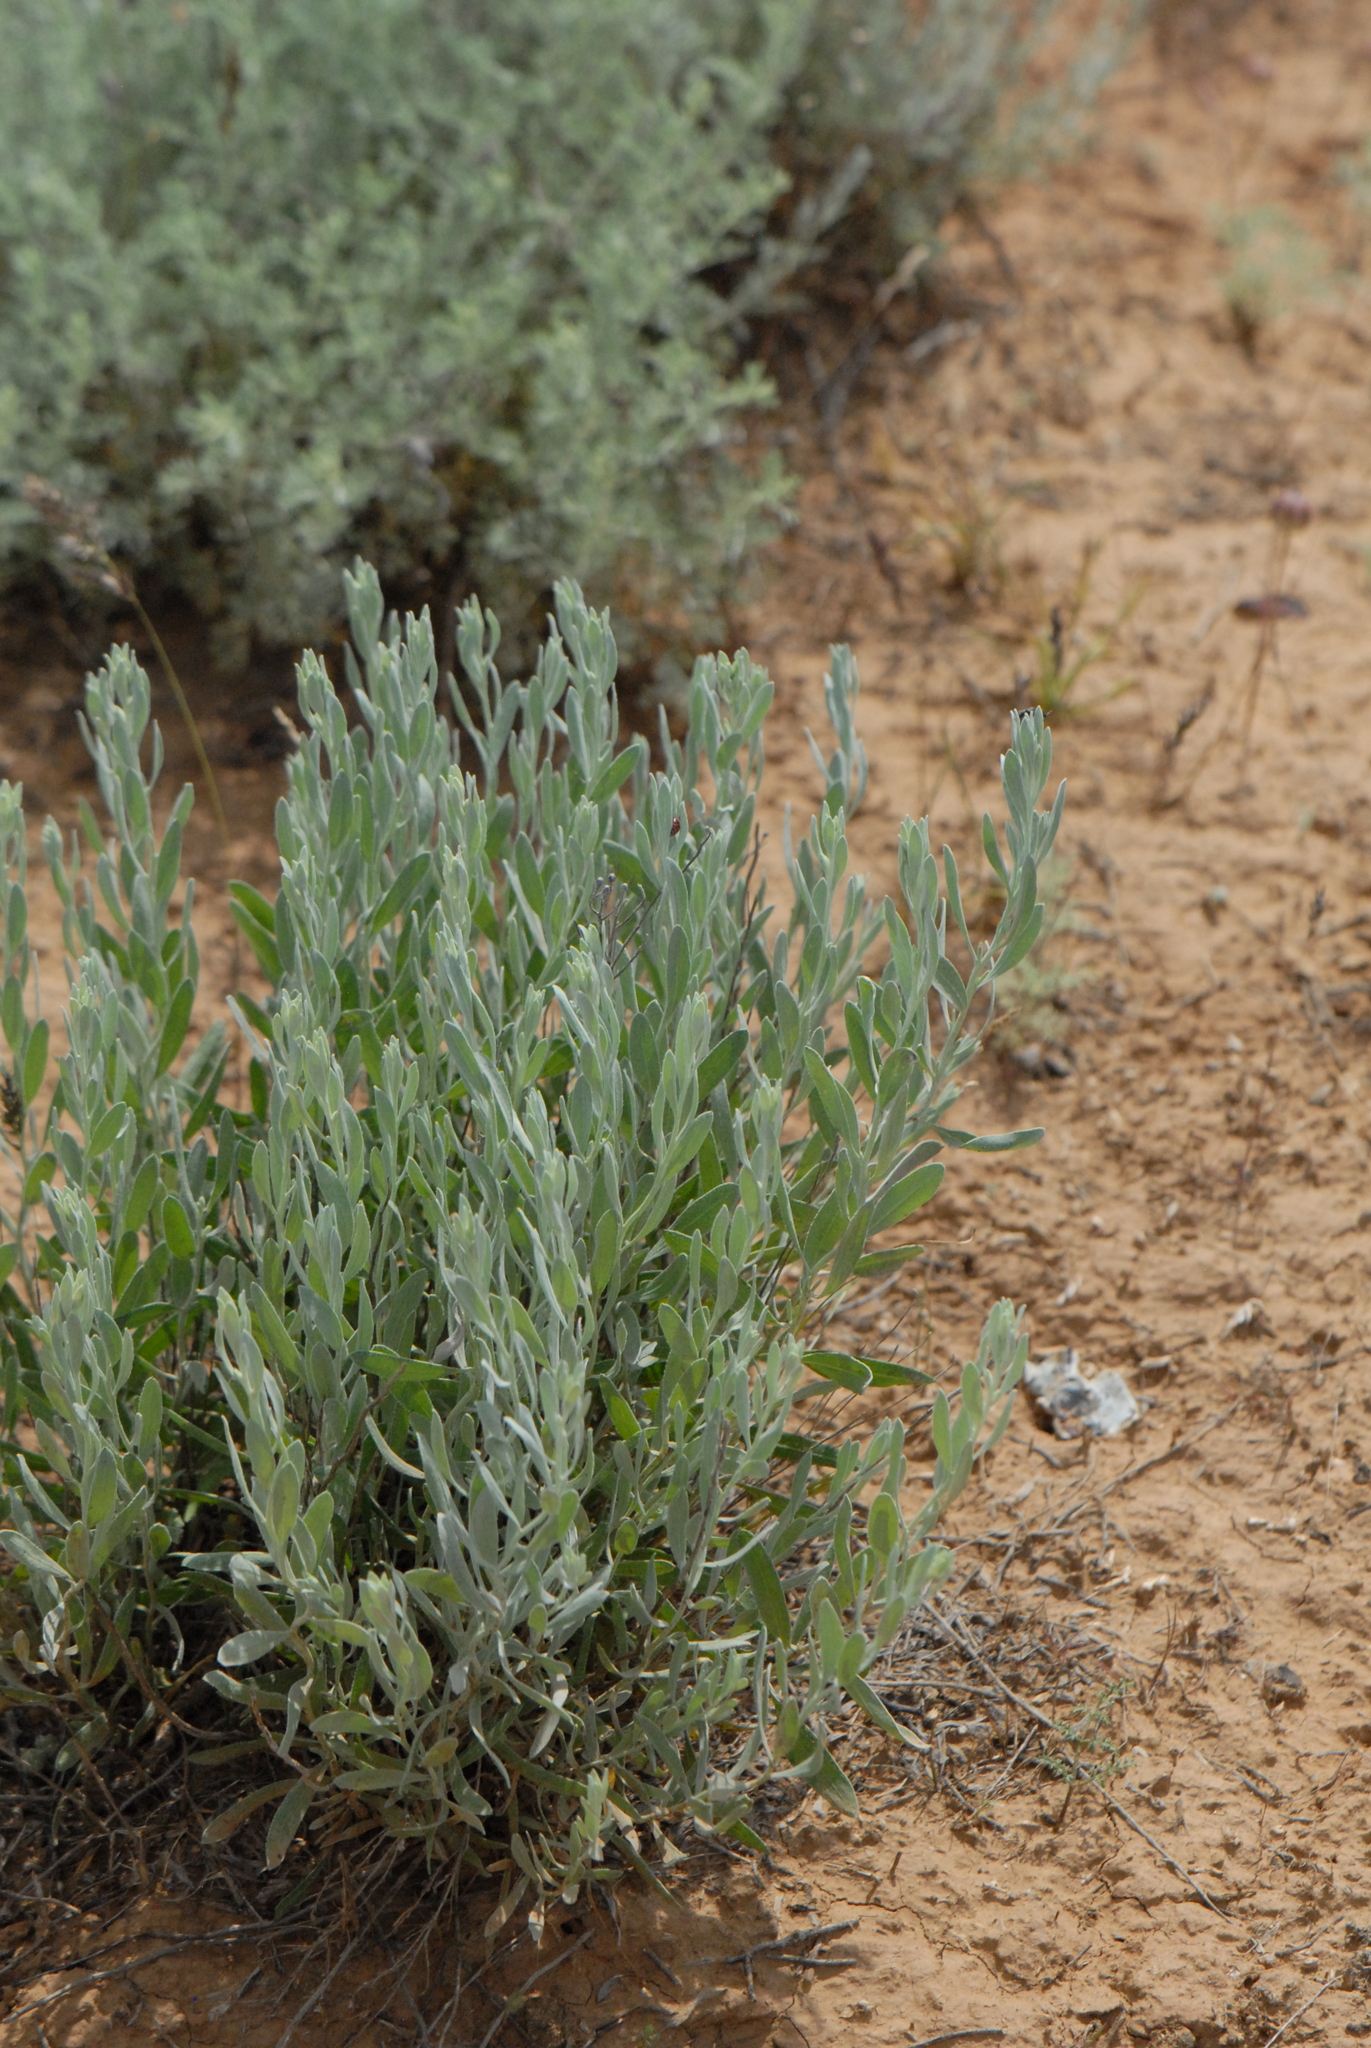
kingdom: Plantae
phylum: Tracheophyta
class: Magnoliopsida
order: Asterales
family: Asteraceae
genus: Galatella
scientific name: Galatella villosa
